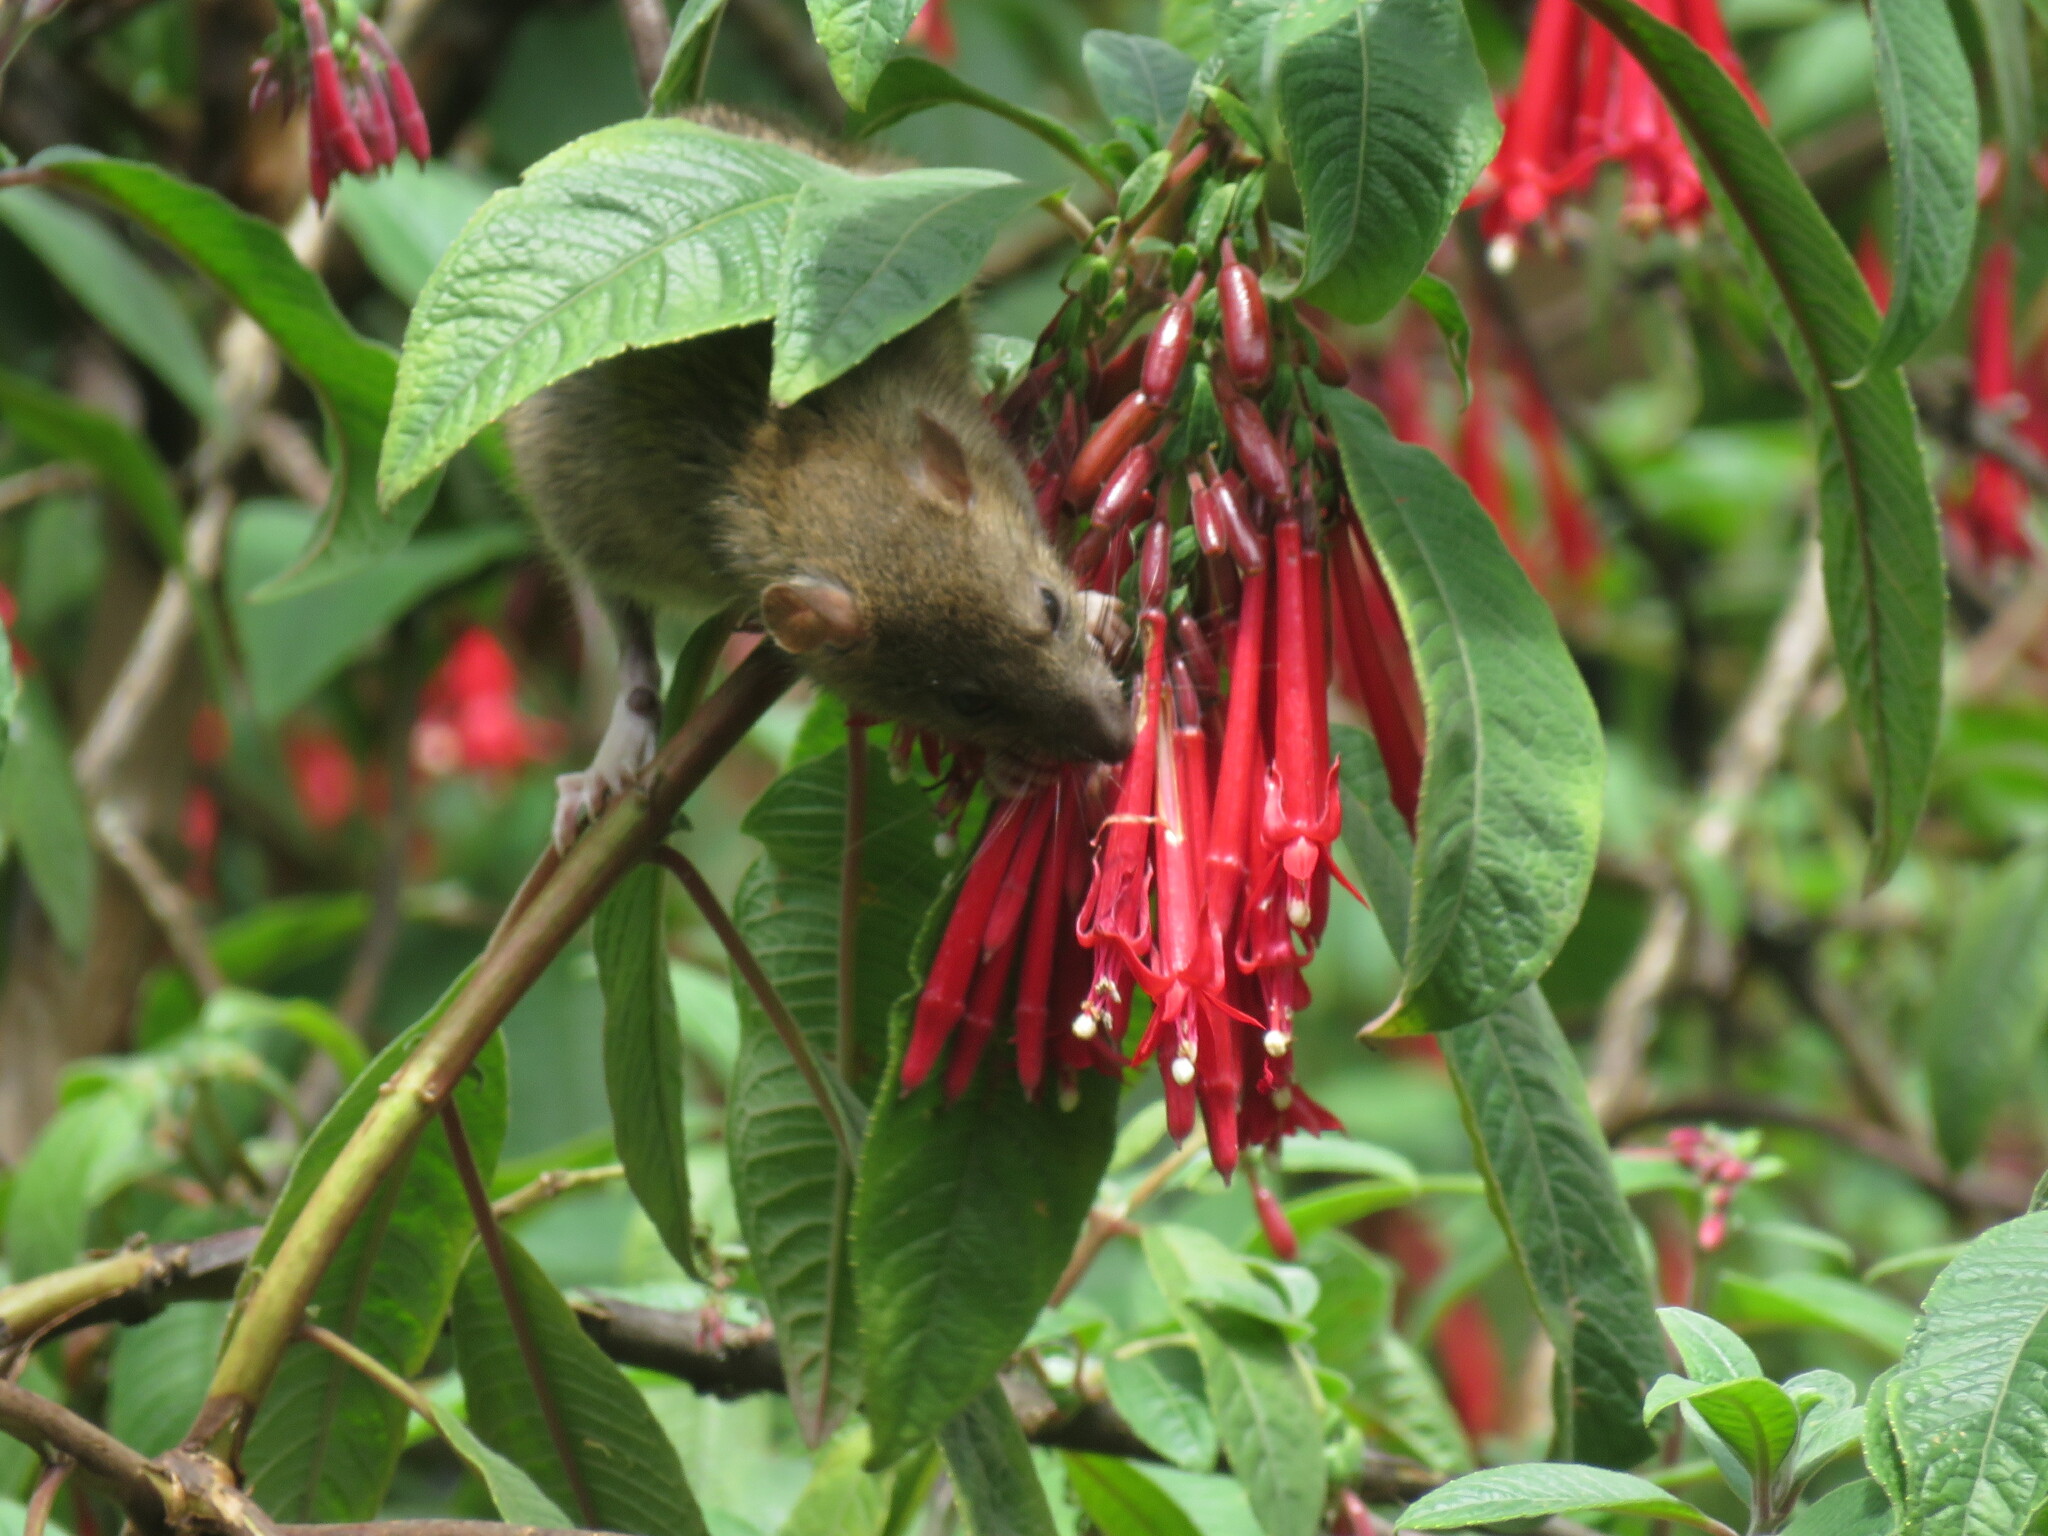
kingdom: Animalia
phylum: Chordata
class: Mammalia
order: Rodentia
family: Muridae
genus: Rattus
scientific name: Rattus norvegicus
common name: Brown rat
